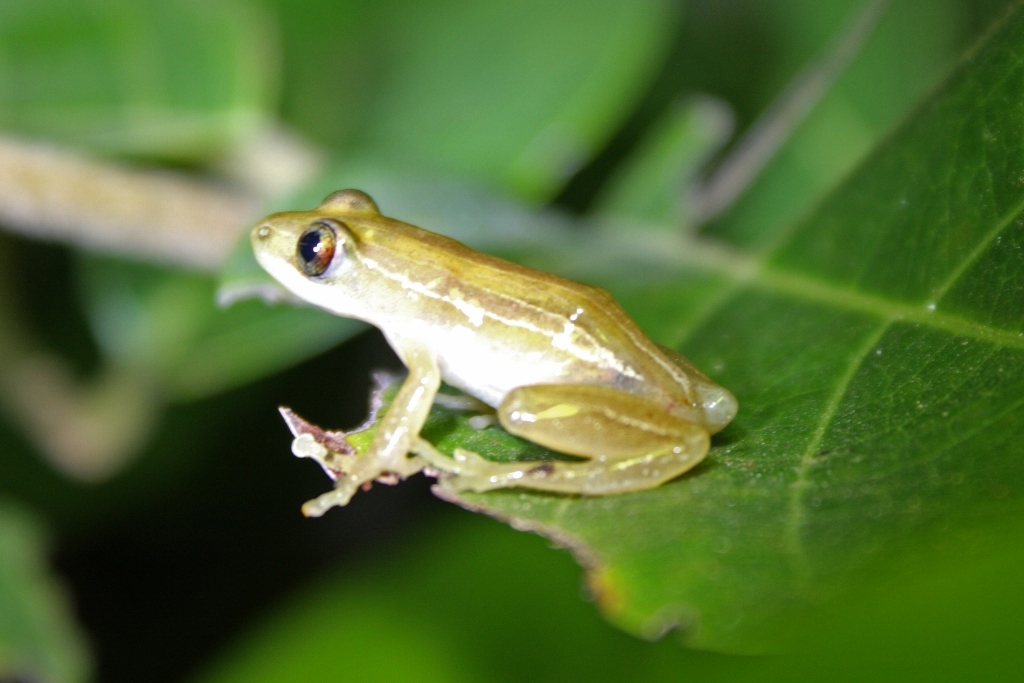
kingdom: Animalia
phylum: Chordata
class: Amphibia
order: Anura
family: Hyperoliidae
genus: Afrixalus
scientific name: Afrixalus vittiger
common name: Spiny reed frog
